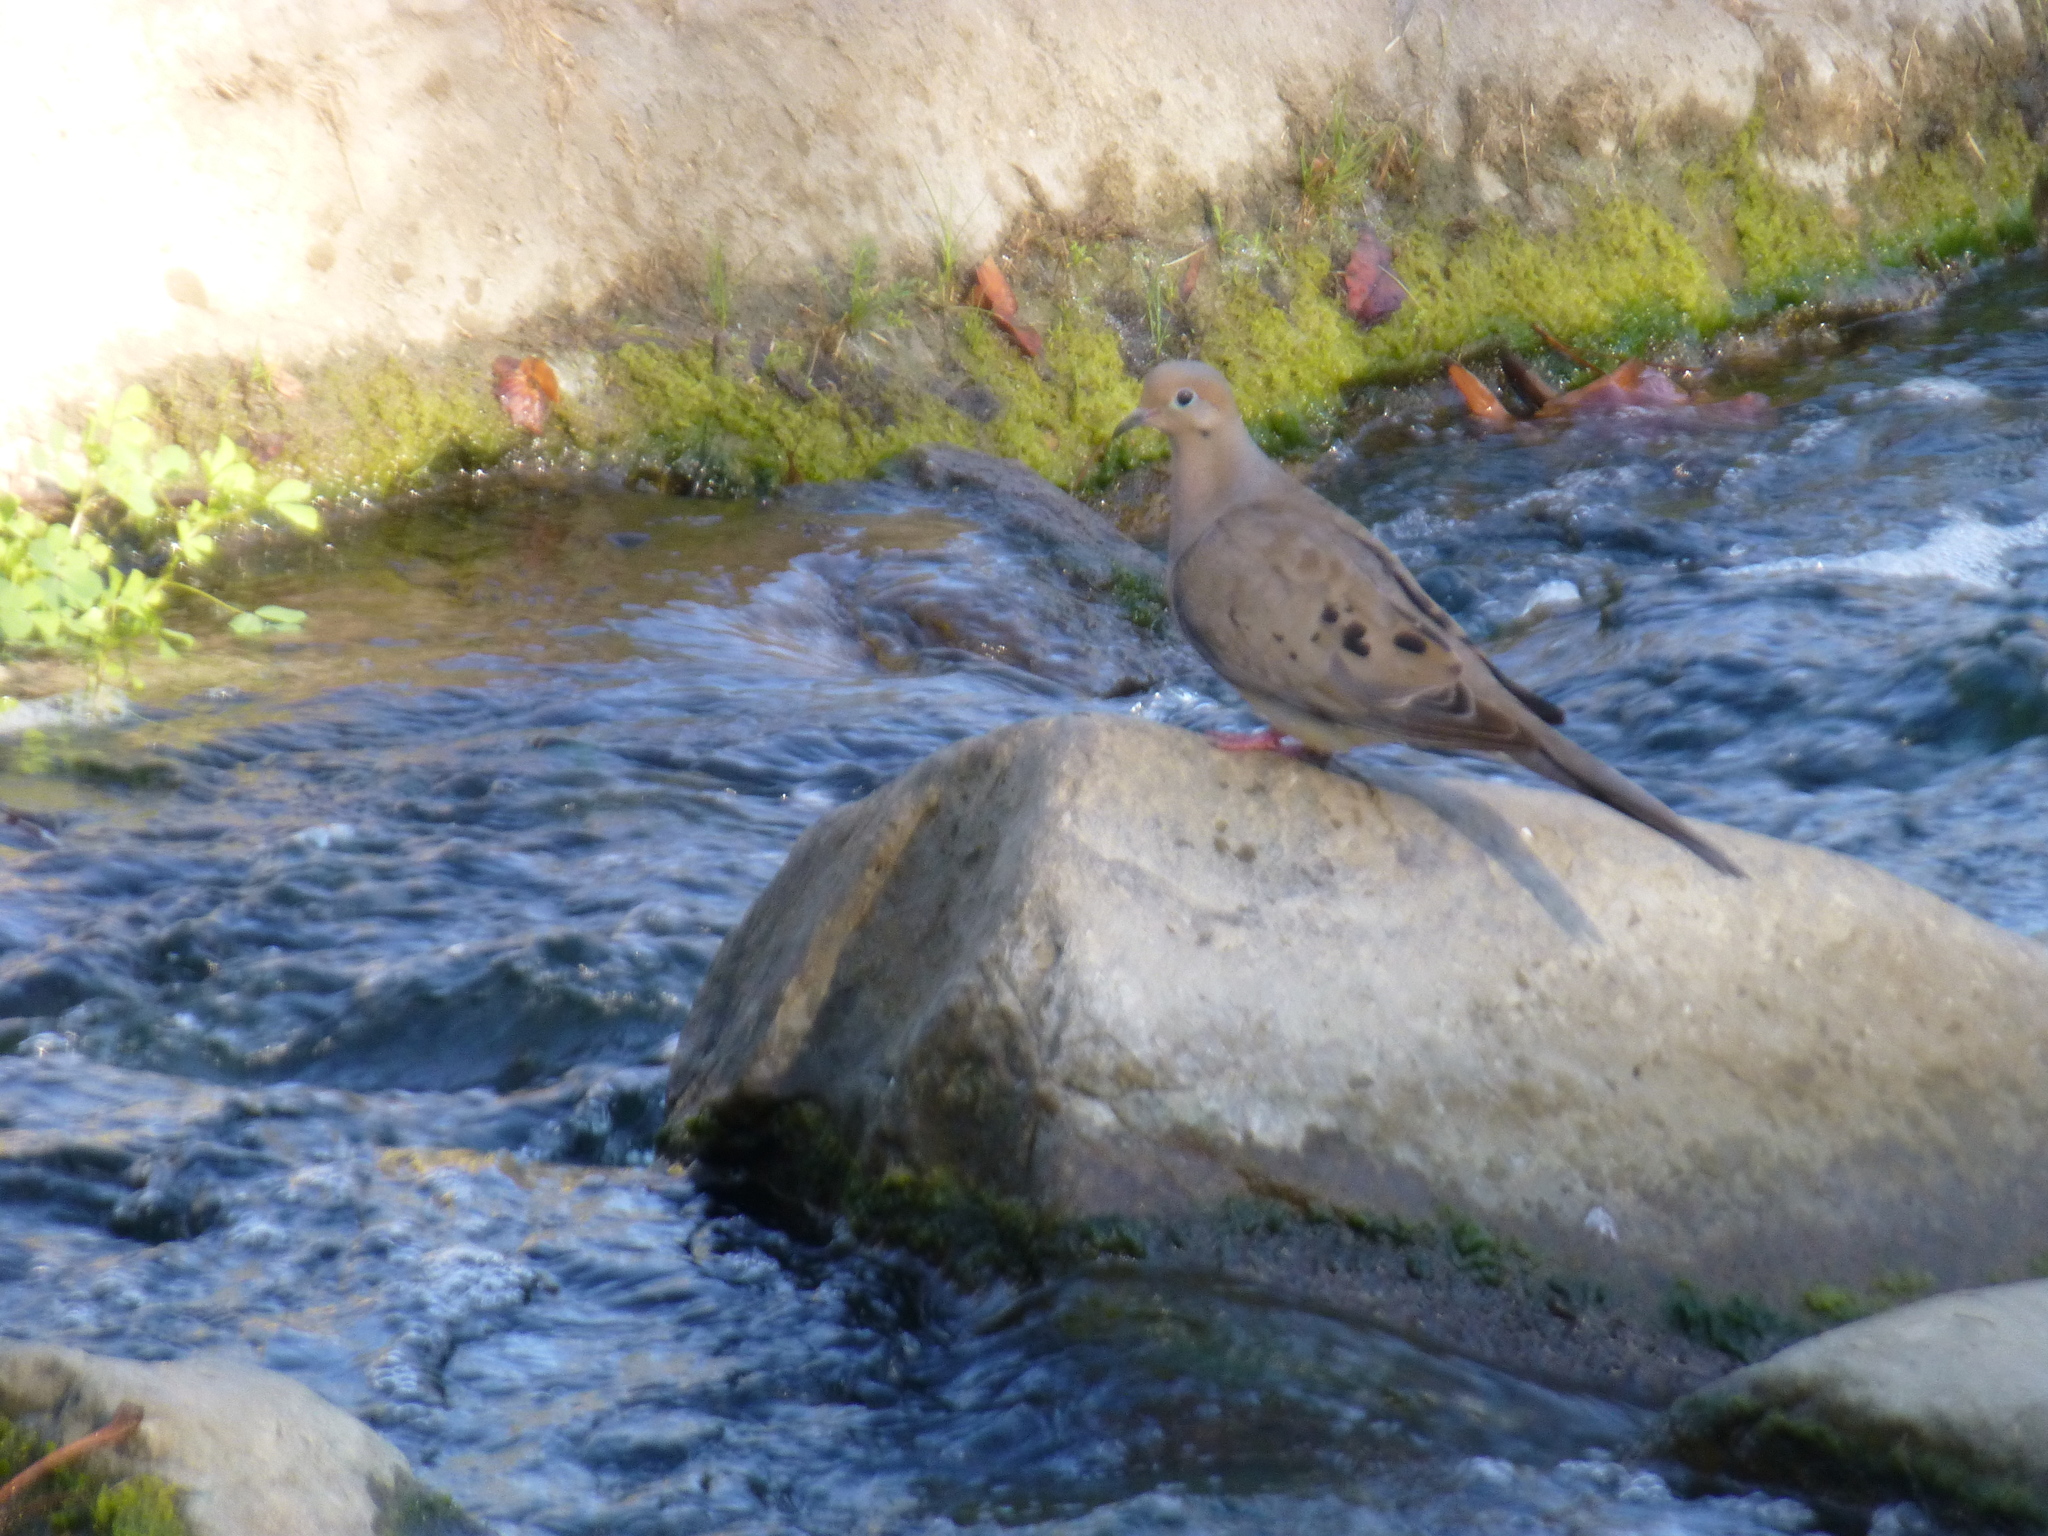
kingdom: Animalia
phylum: Chordata
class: Aves
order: Columbiformes
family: Columbidae
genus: Zenaida
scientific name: Zenaida macroura
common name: Mourning dove
